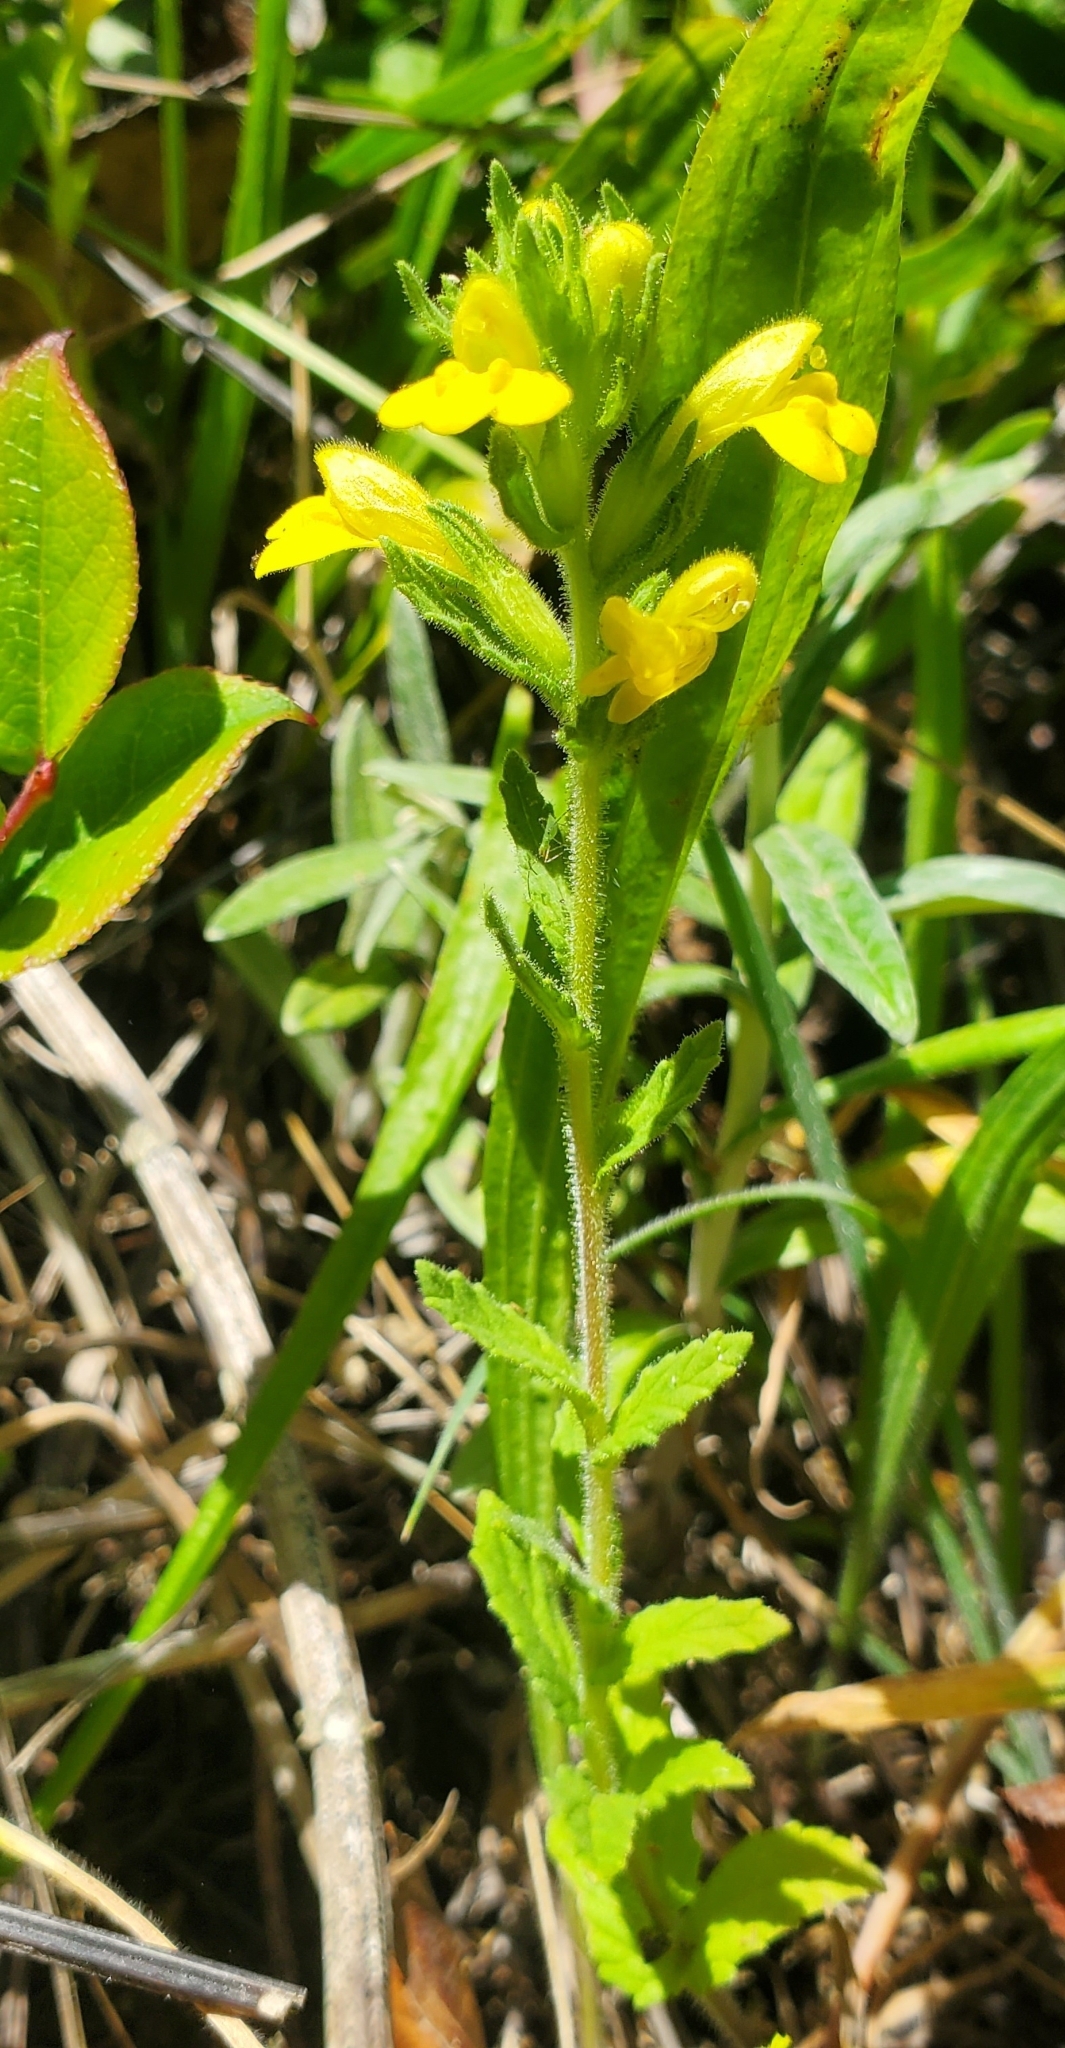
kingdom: Plantae
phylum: Tracheophyta
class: Magnoliopsida
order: Lamiales
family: Orobanchaceae
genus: Bellardia
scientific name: Bellardia viscosa
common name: Sticky parentucellia
